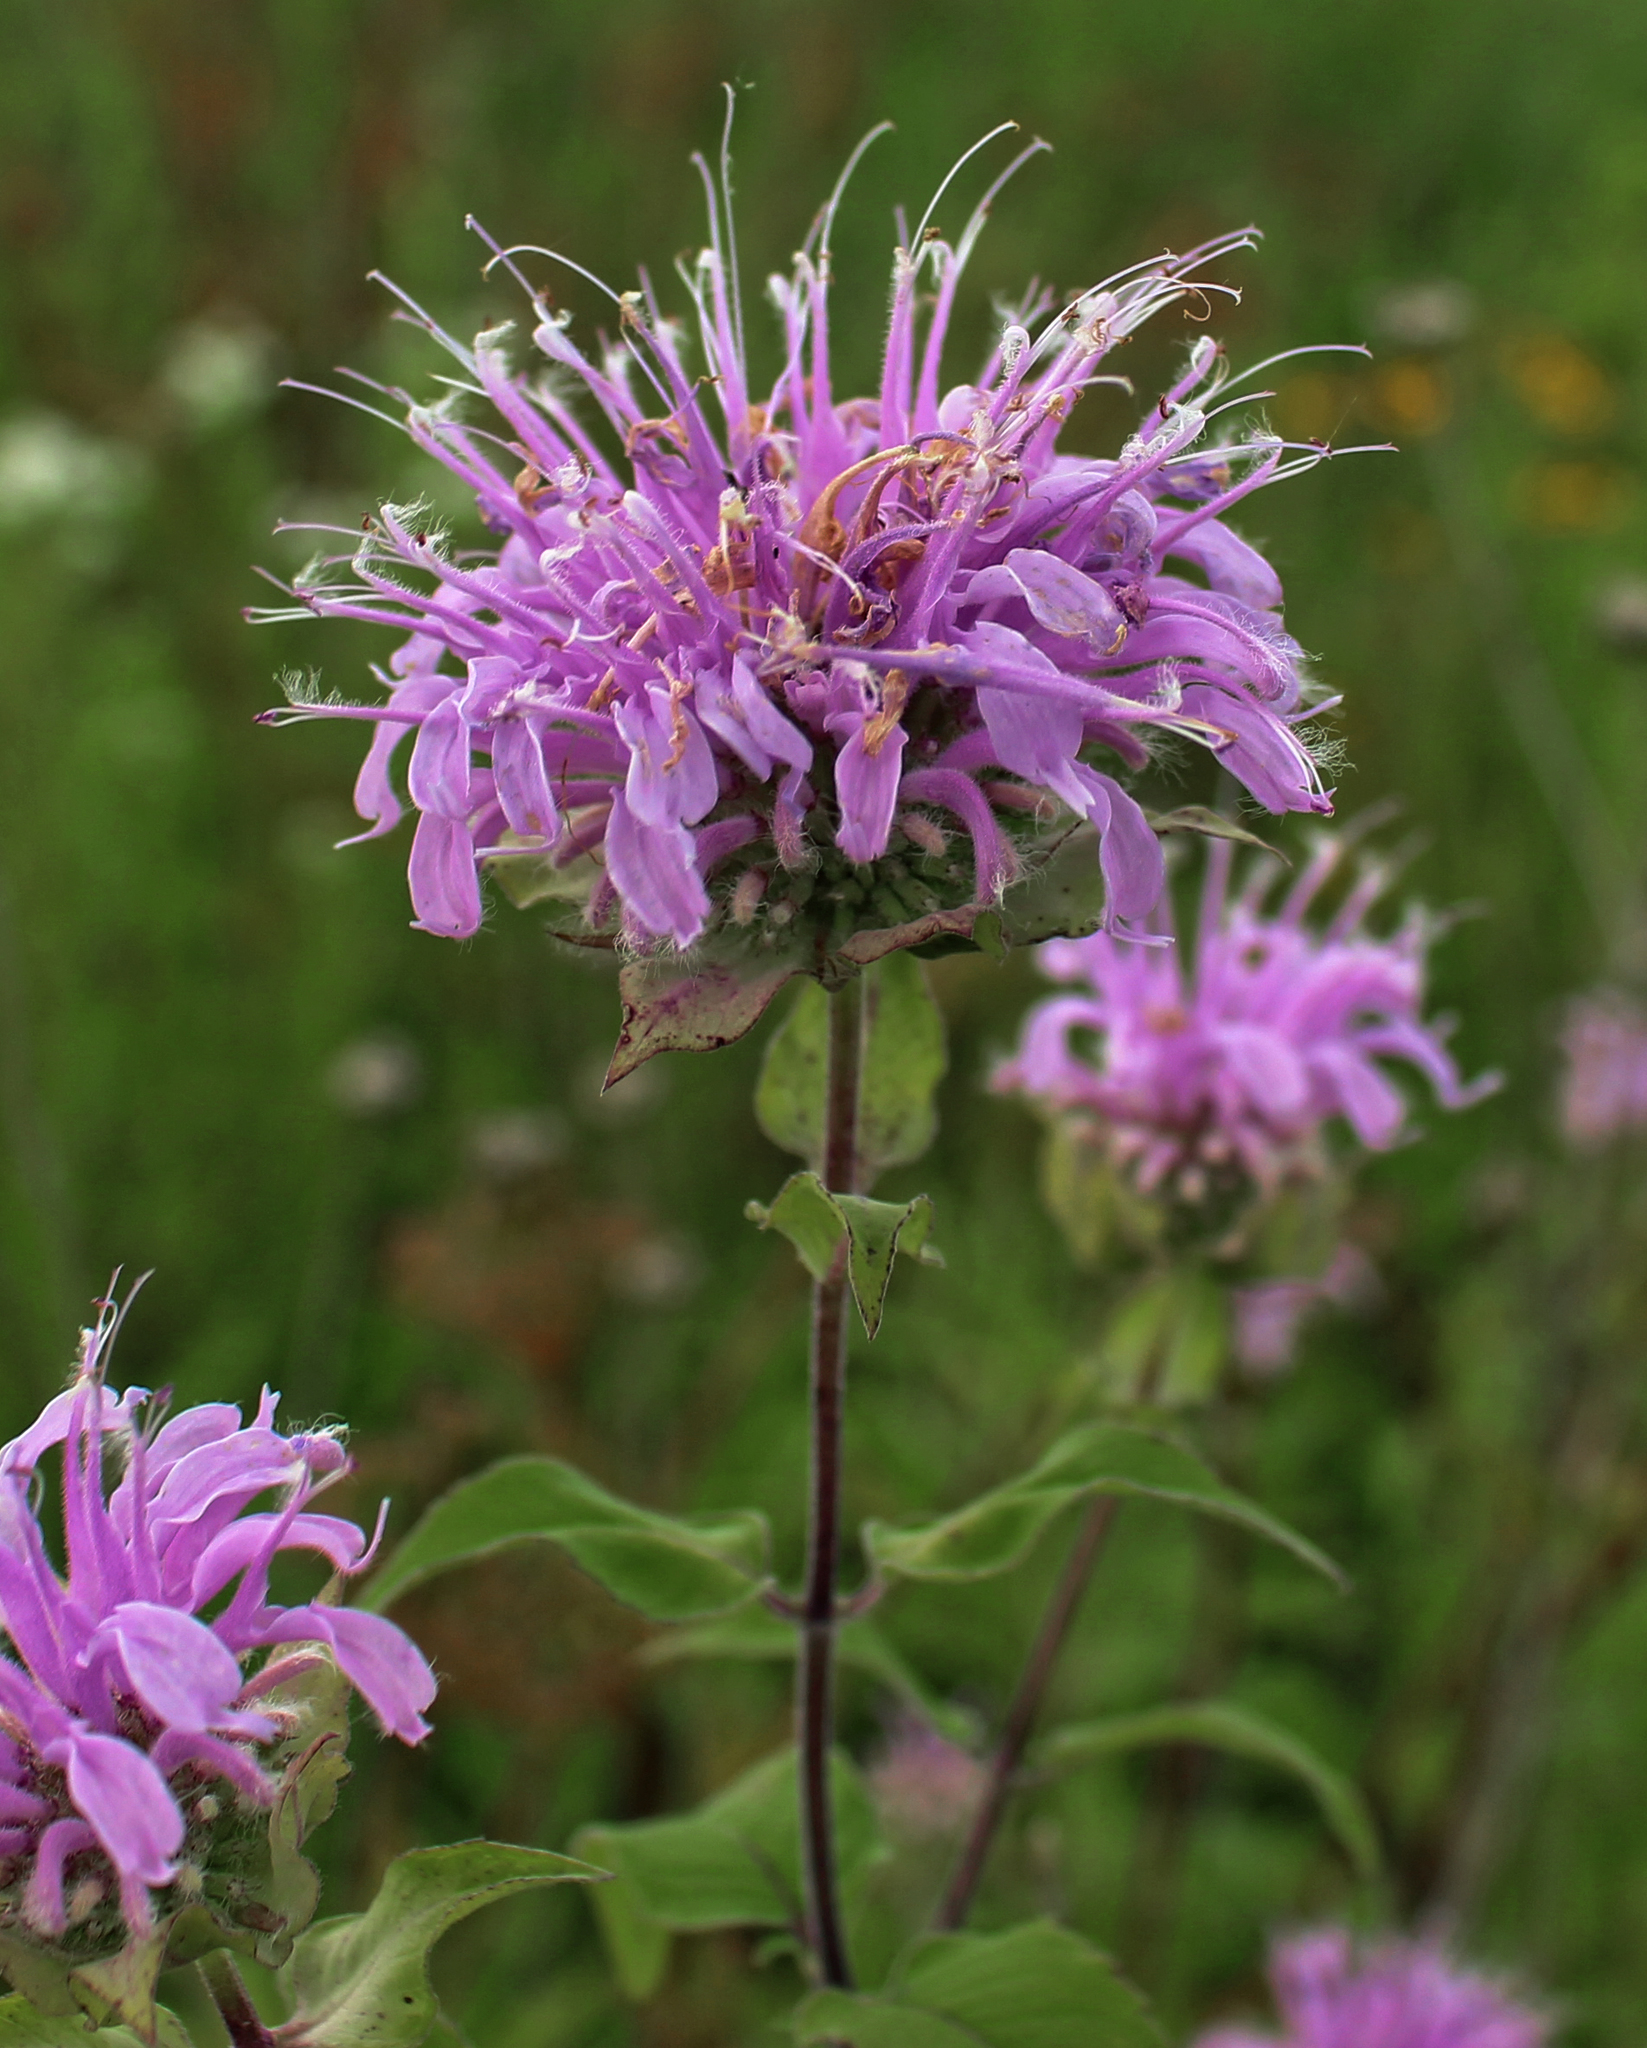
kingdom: Plantae
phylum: Tracheophyta
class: Magnoliopsida
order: Lamiales
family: Lamiaceae
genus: Monarda
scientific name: Monarda fistulosa
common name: Purple beebalm
